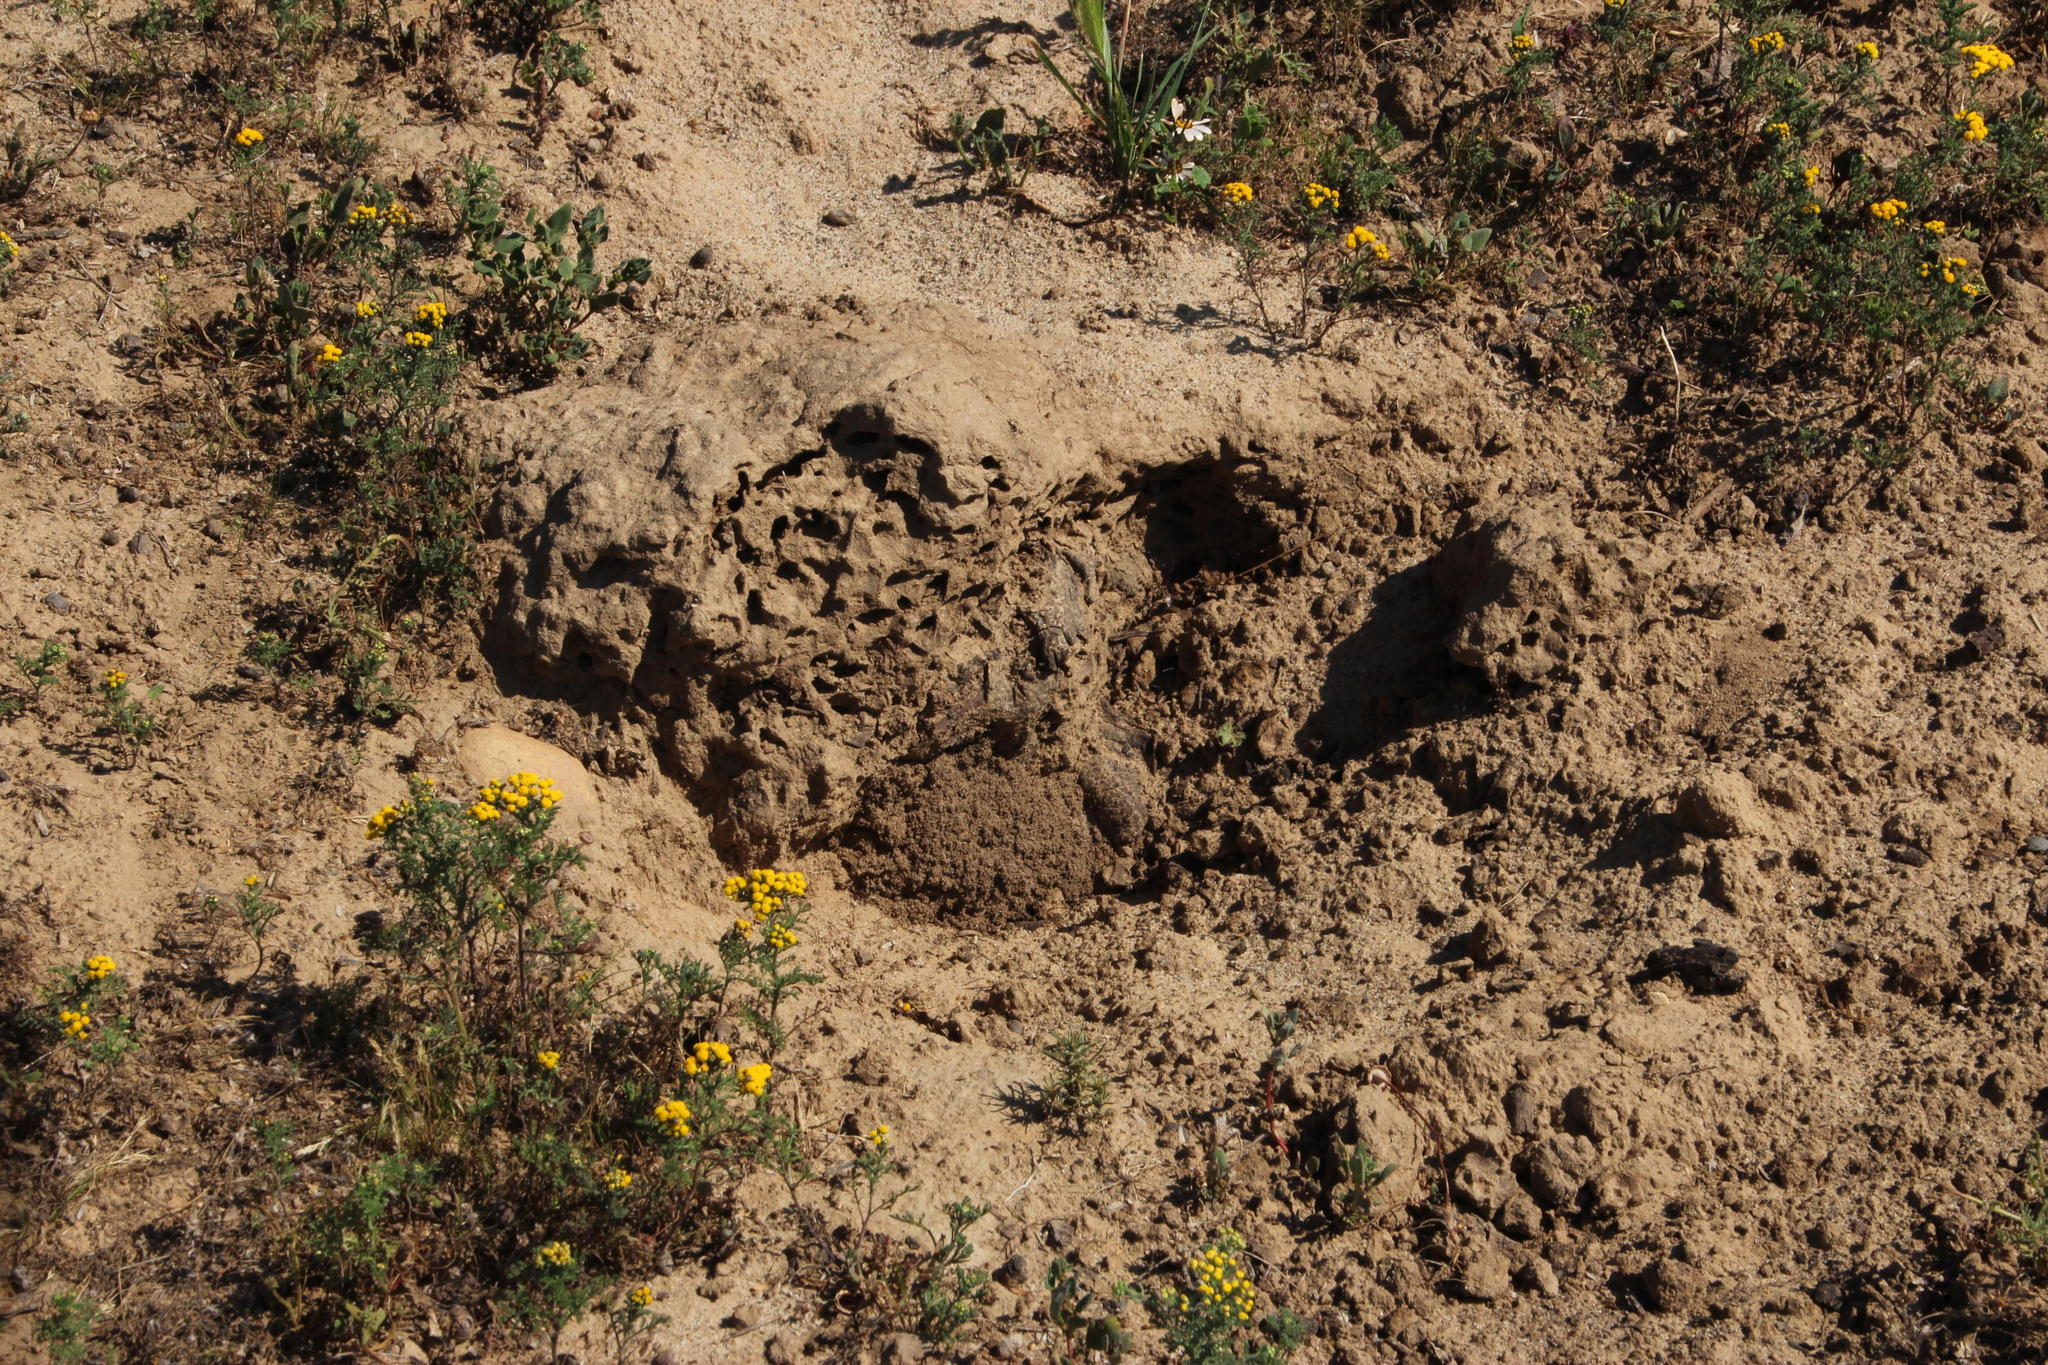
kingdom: Animalia
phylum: Chordata
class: Mammalia
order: Tubulidentata
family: Orycteropodidae
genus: Orycteropus
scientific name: Orycteropus afer
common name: Aardvark
